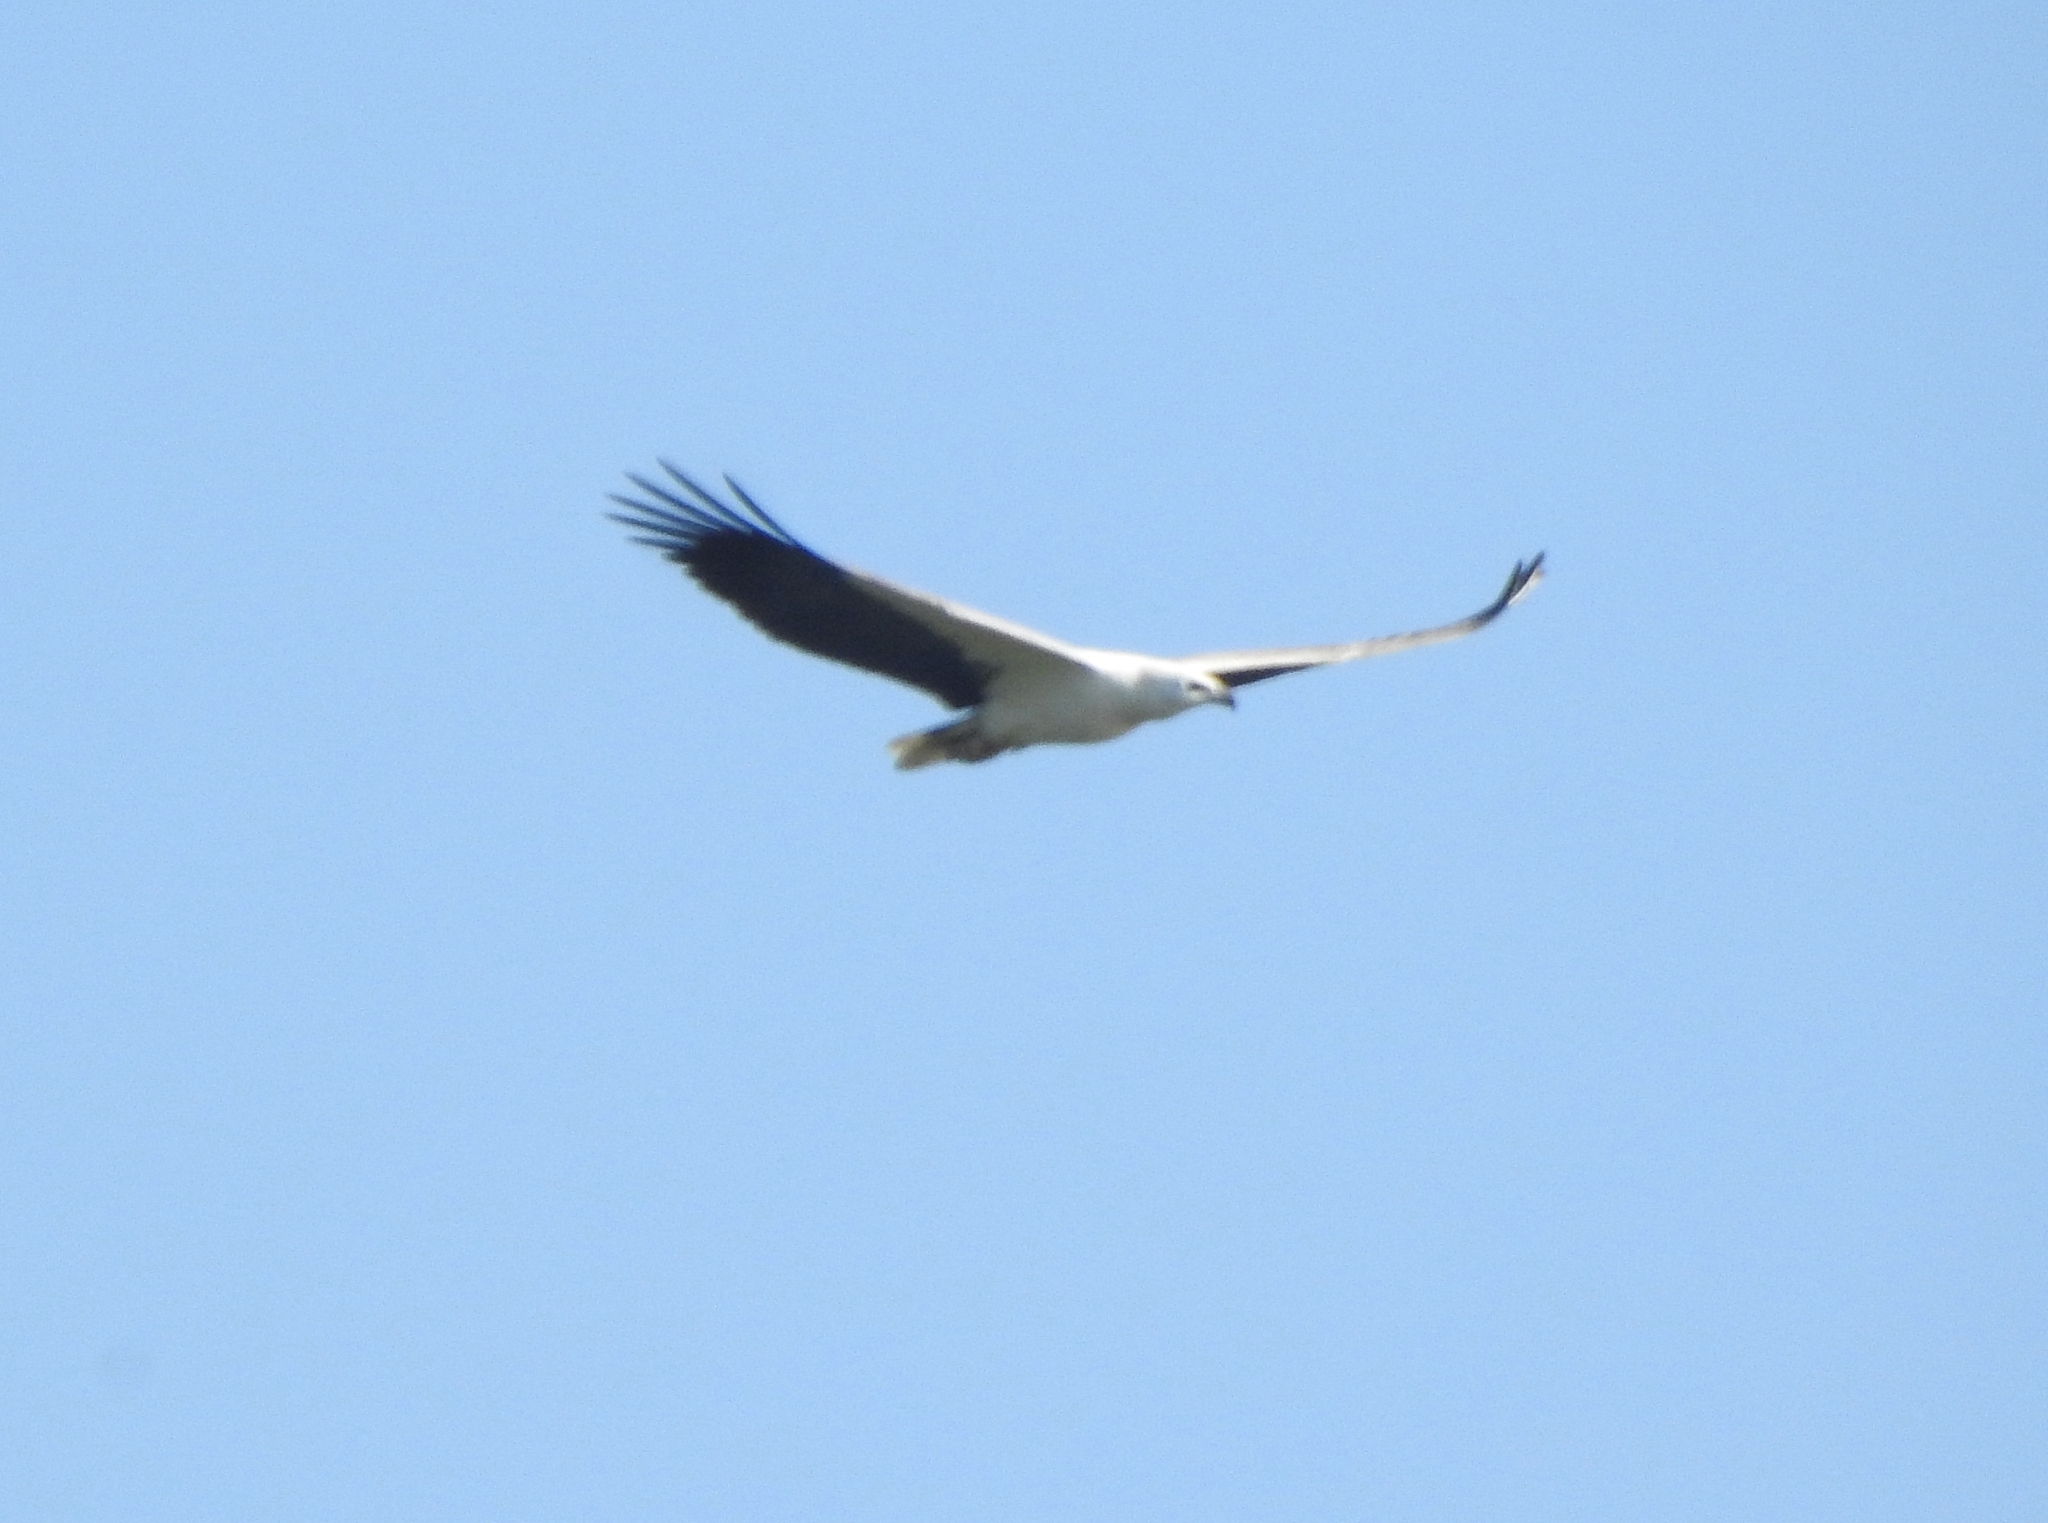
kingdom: Animalia
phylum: Chordata
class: Aves
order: Accipitriformes
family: Accipitridae
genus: Haliaeetus
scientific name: Haliaeetus leucogaster
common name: White-bellied sea eagle
